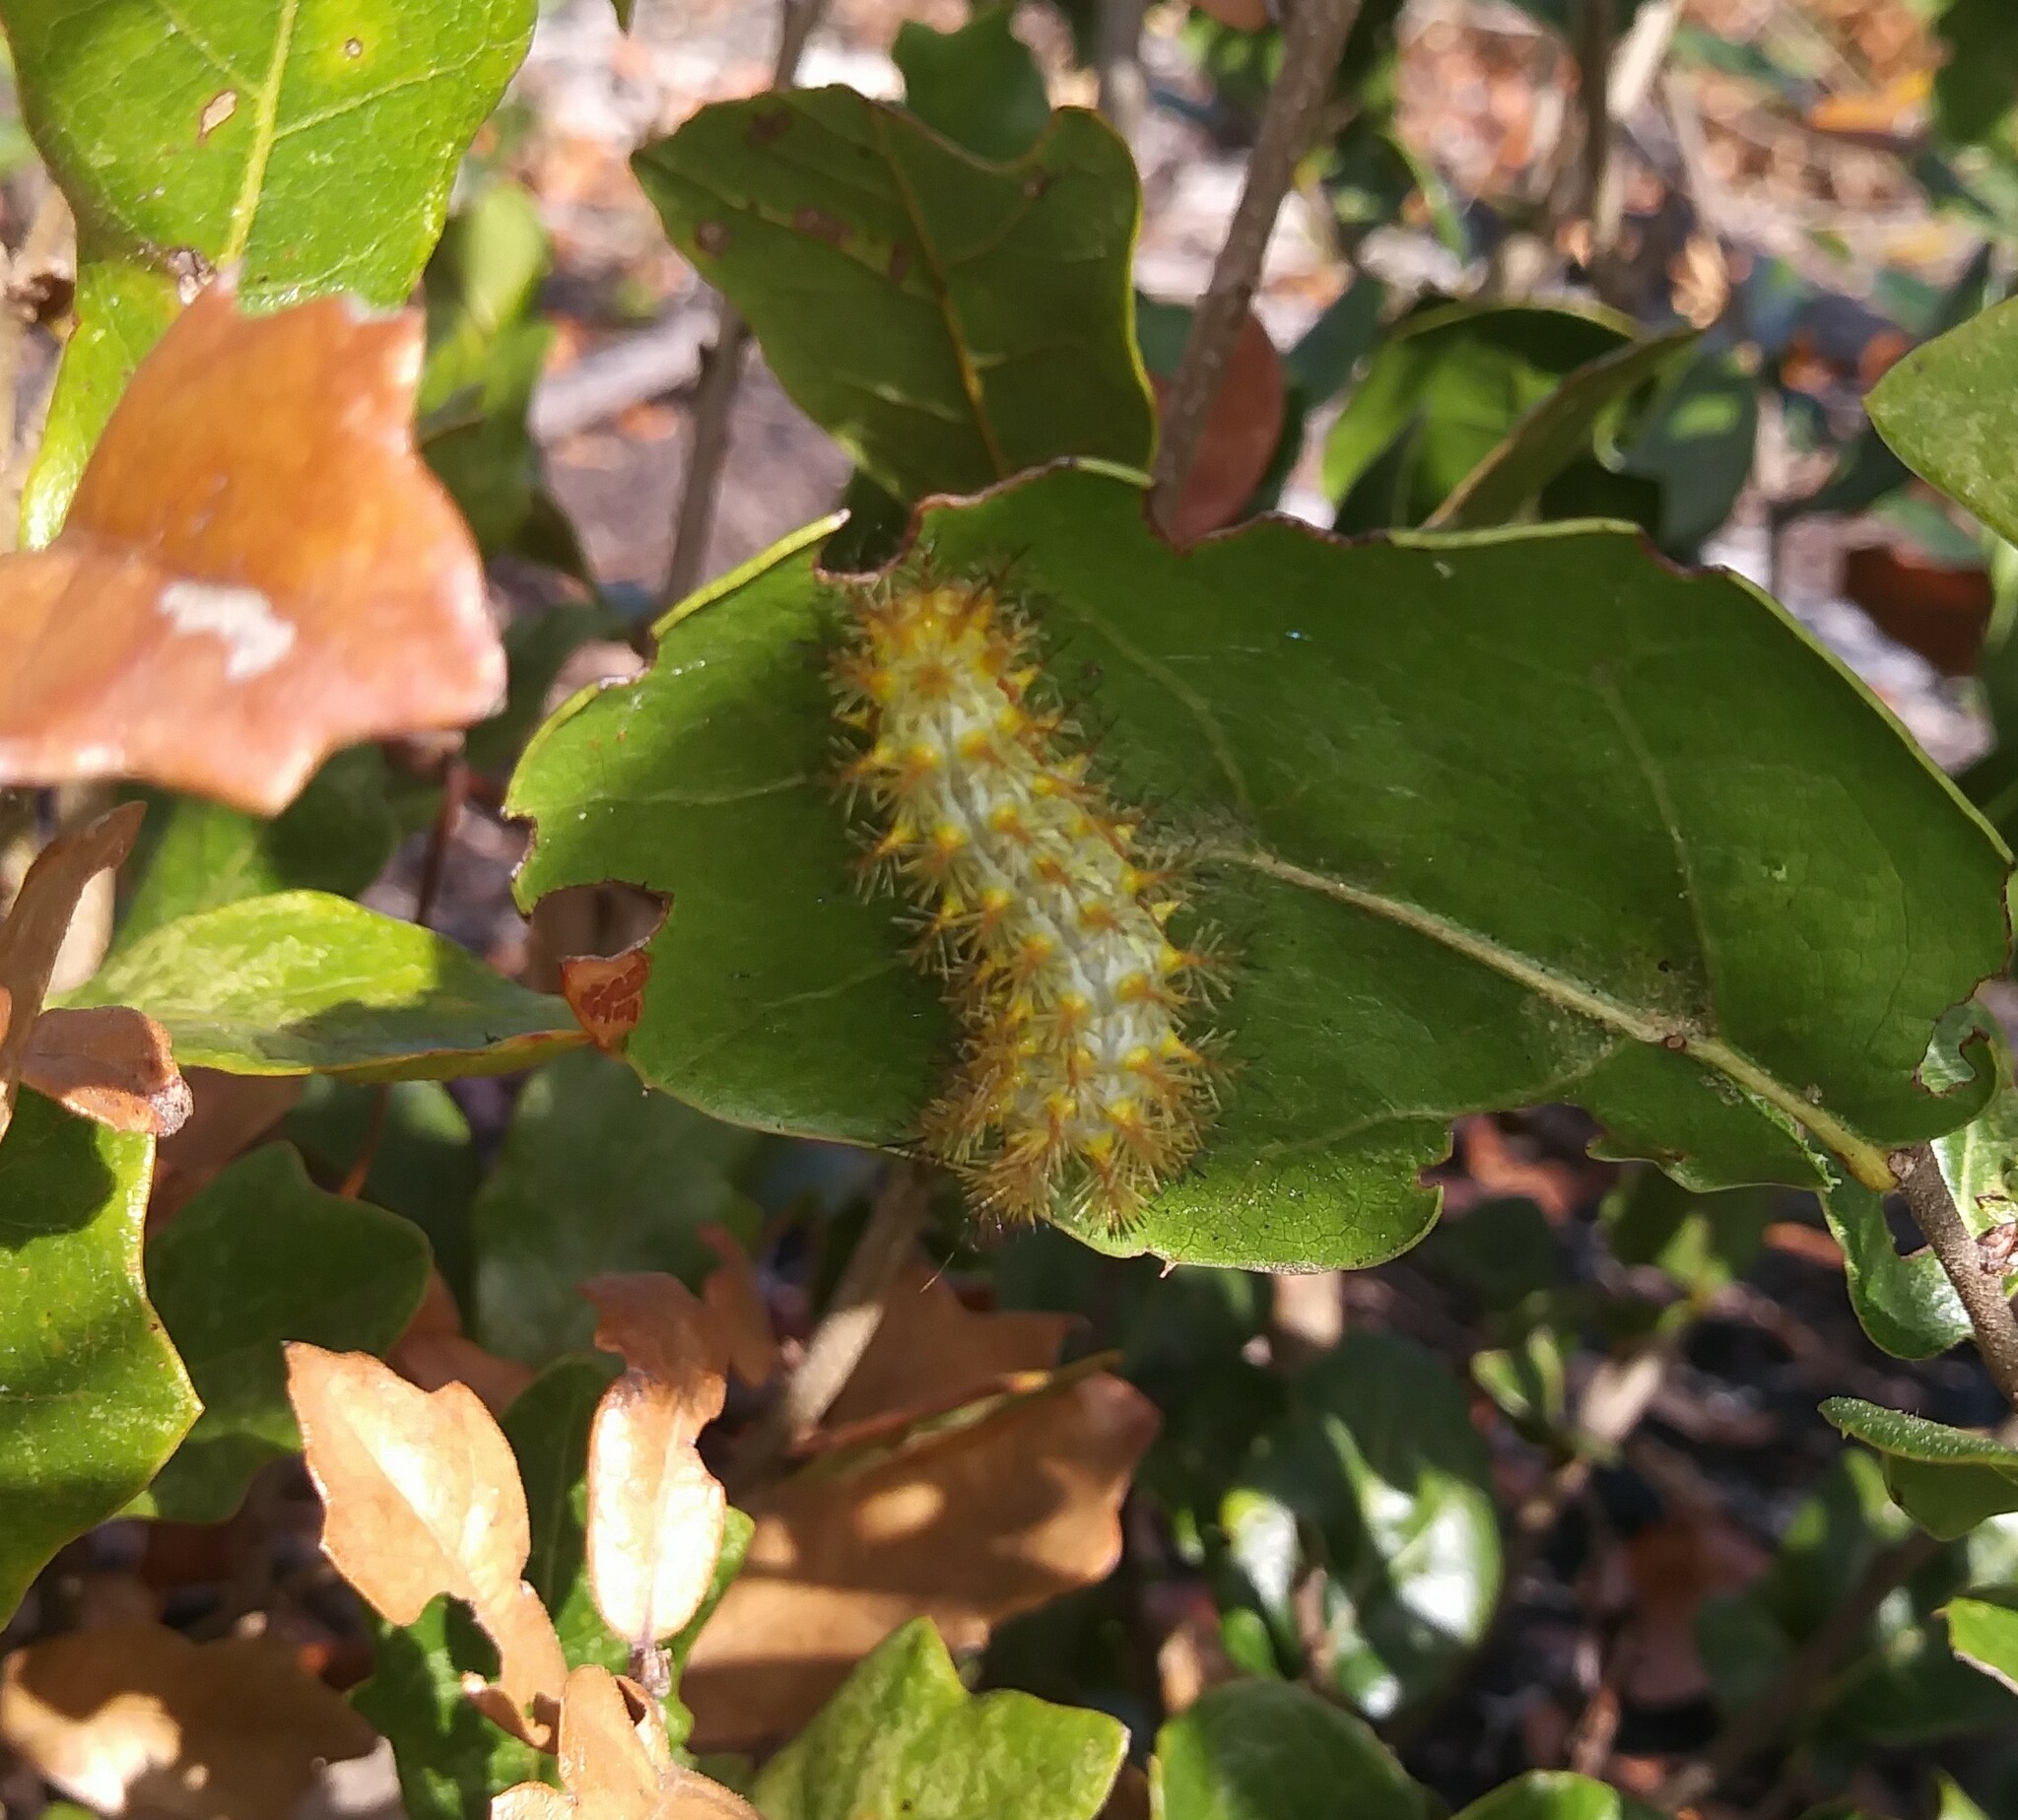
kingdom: Animalia
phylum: Arthropoda
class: Insecta
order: Lepidoptera
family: Saturniidae
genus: Automeris
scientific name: Automeris io
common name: Io moth
